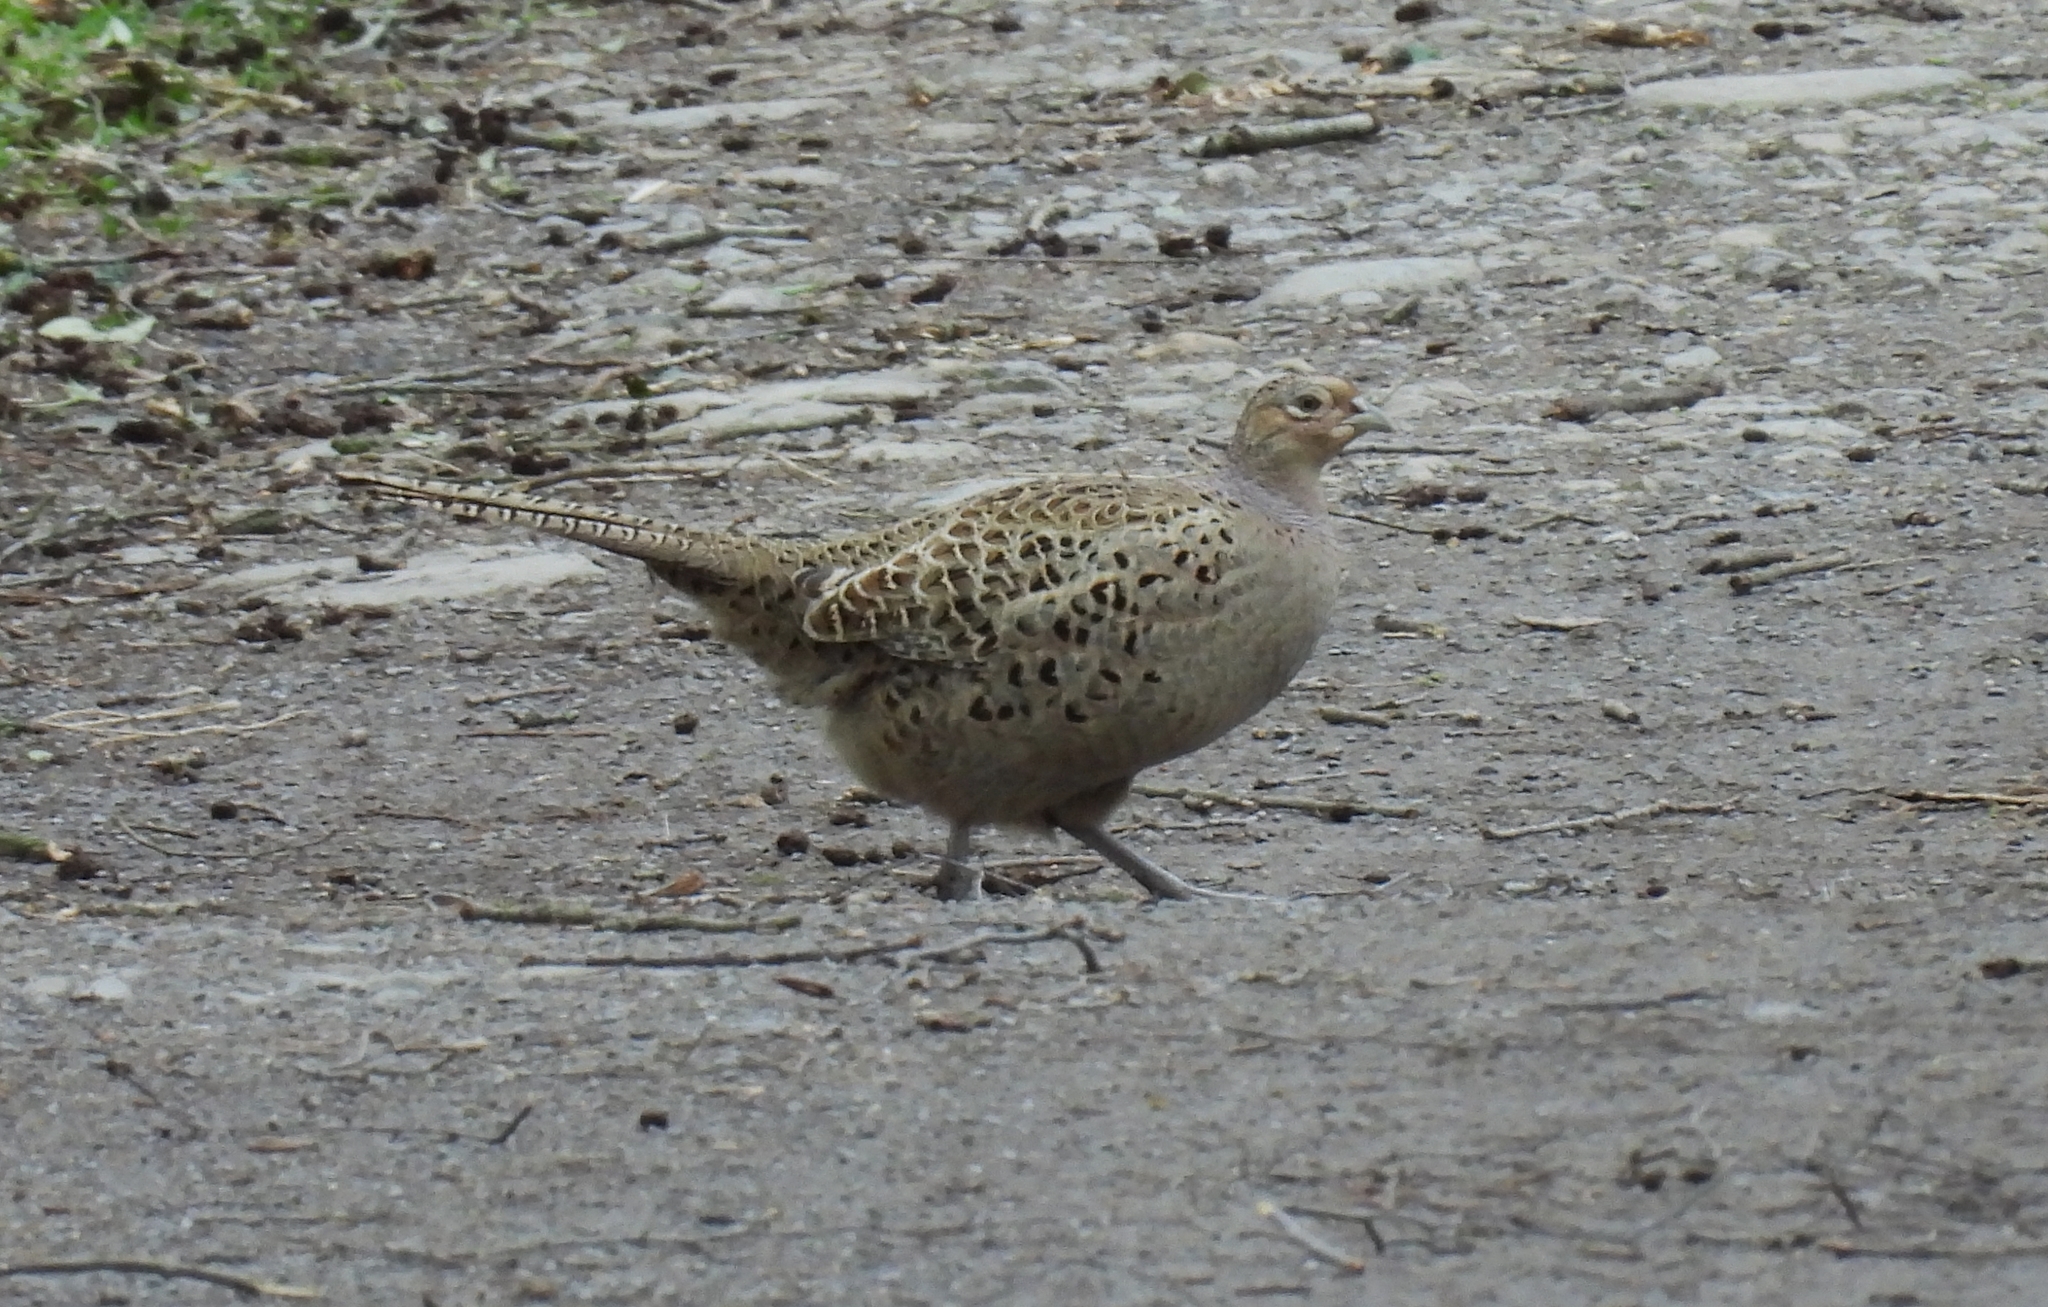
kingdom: Animalia
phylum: Chordata
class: Aves
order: Galliformes
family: Phasianidae
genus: Phasianus
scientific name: Phasianus colchicus
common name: Common pheasant
